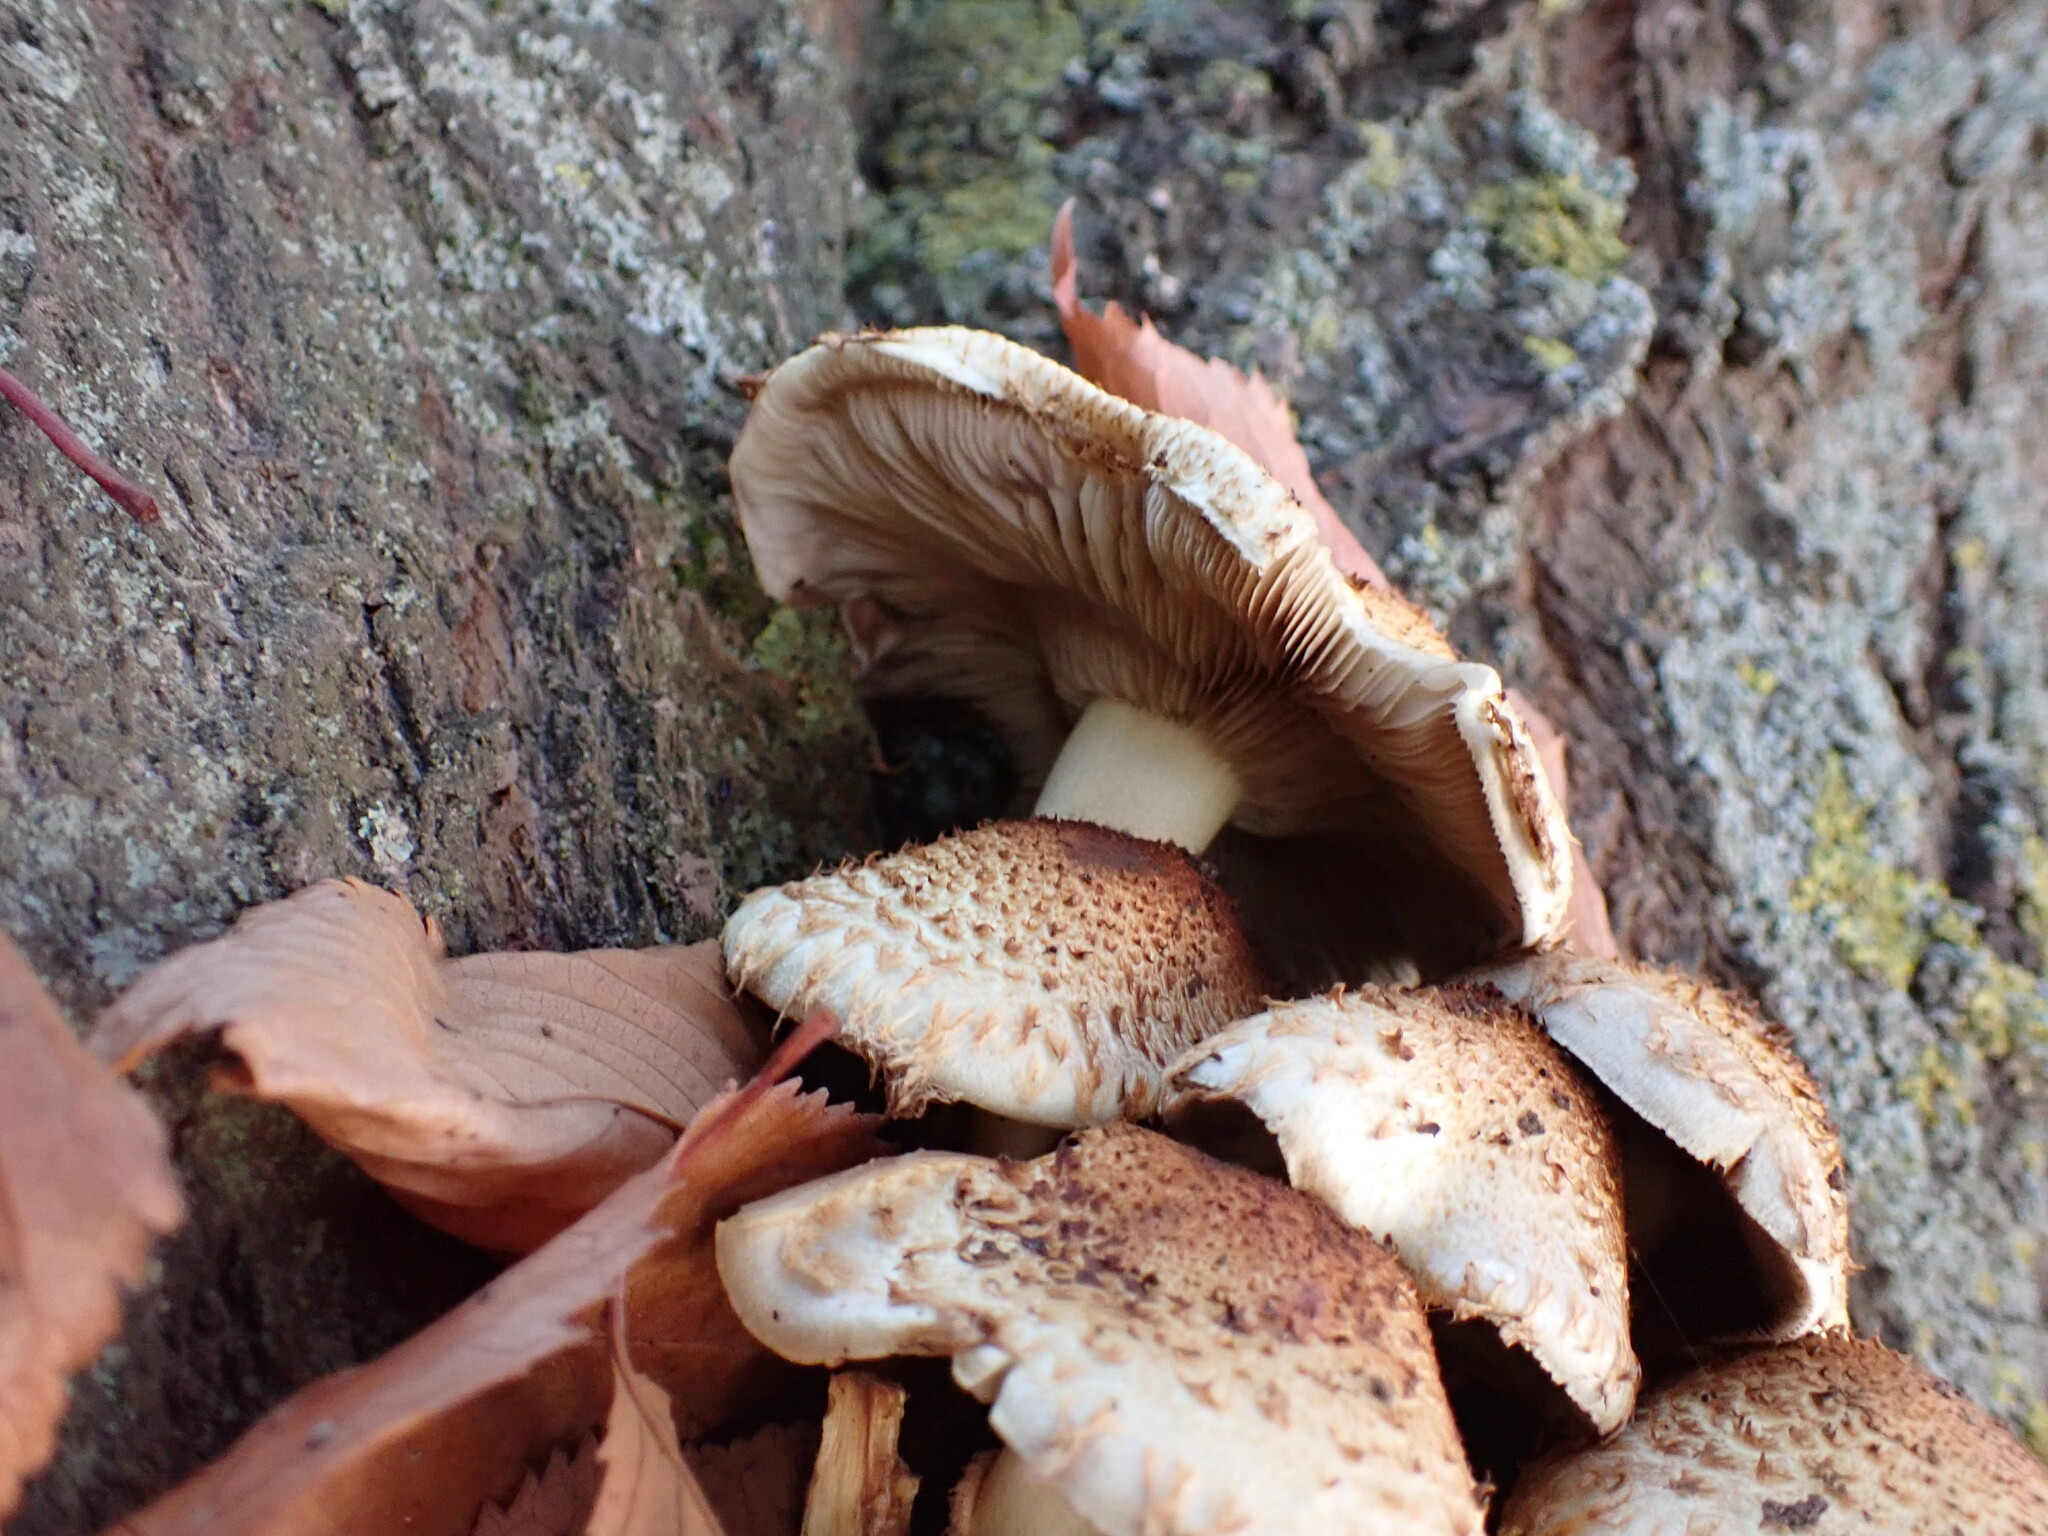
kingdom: Fungi
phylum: Basidiomycota
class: Agaricomycetes
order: Agaricales
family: Strophariaceae
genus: Pholiota
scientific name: Pholiota squarrosa
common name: Shaggy pholiota
